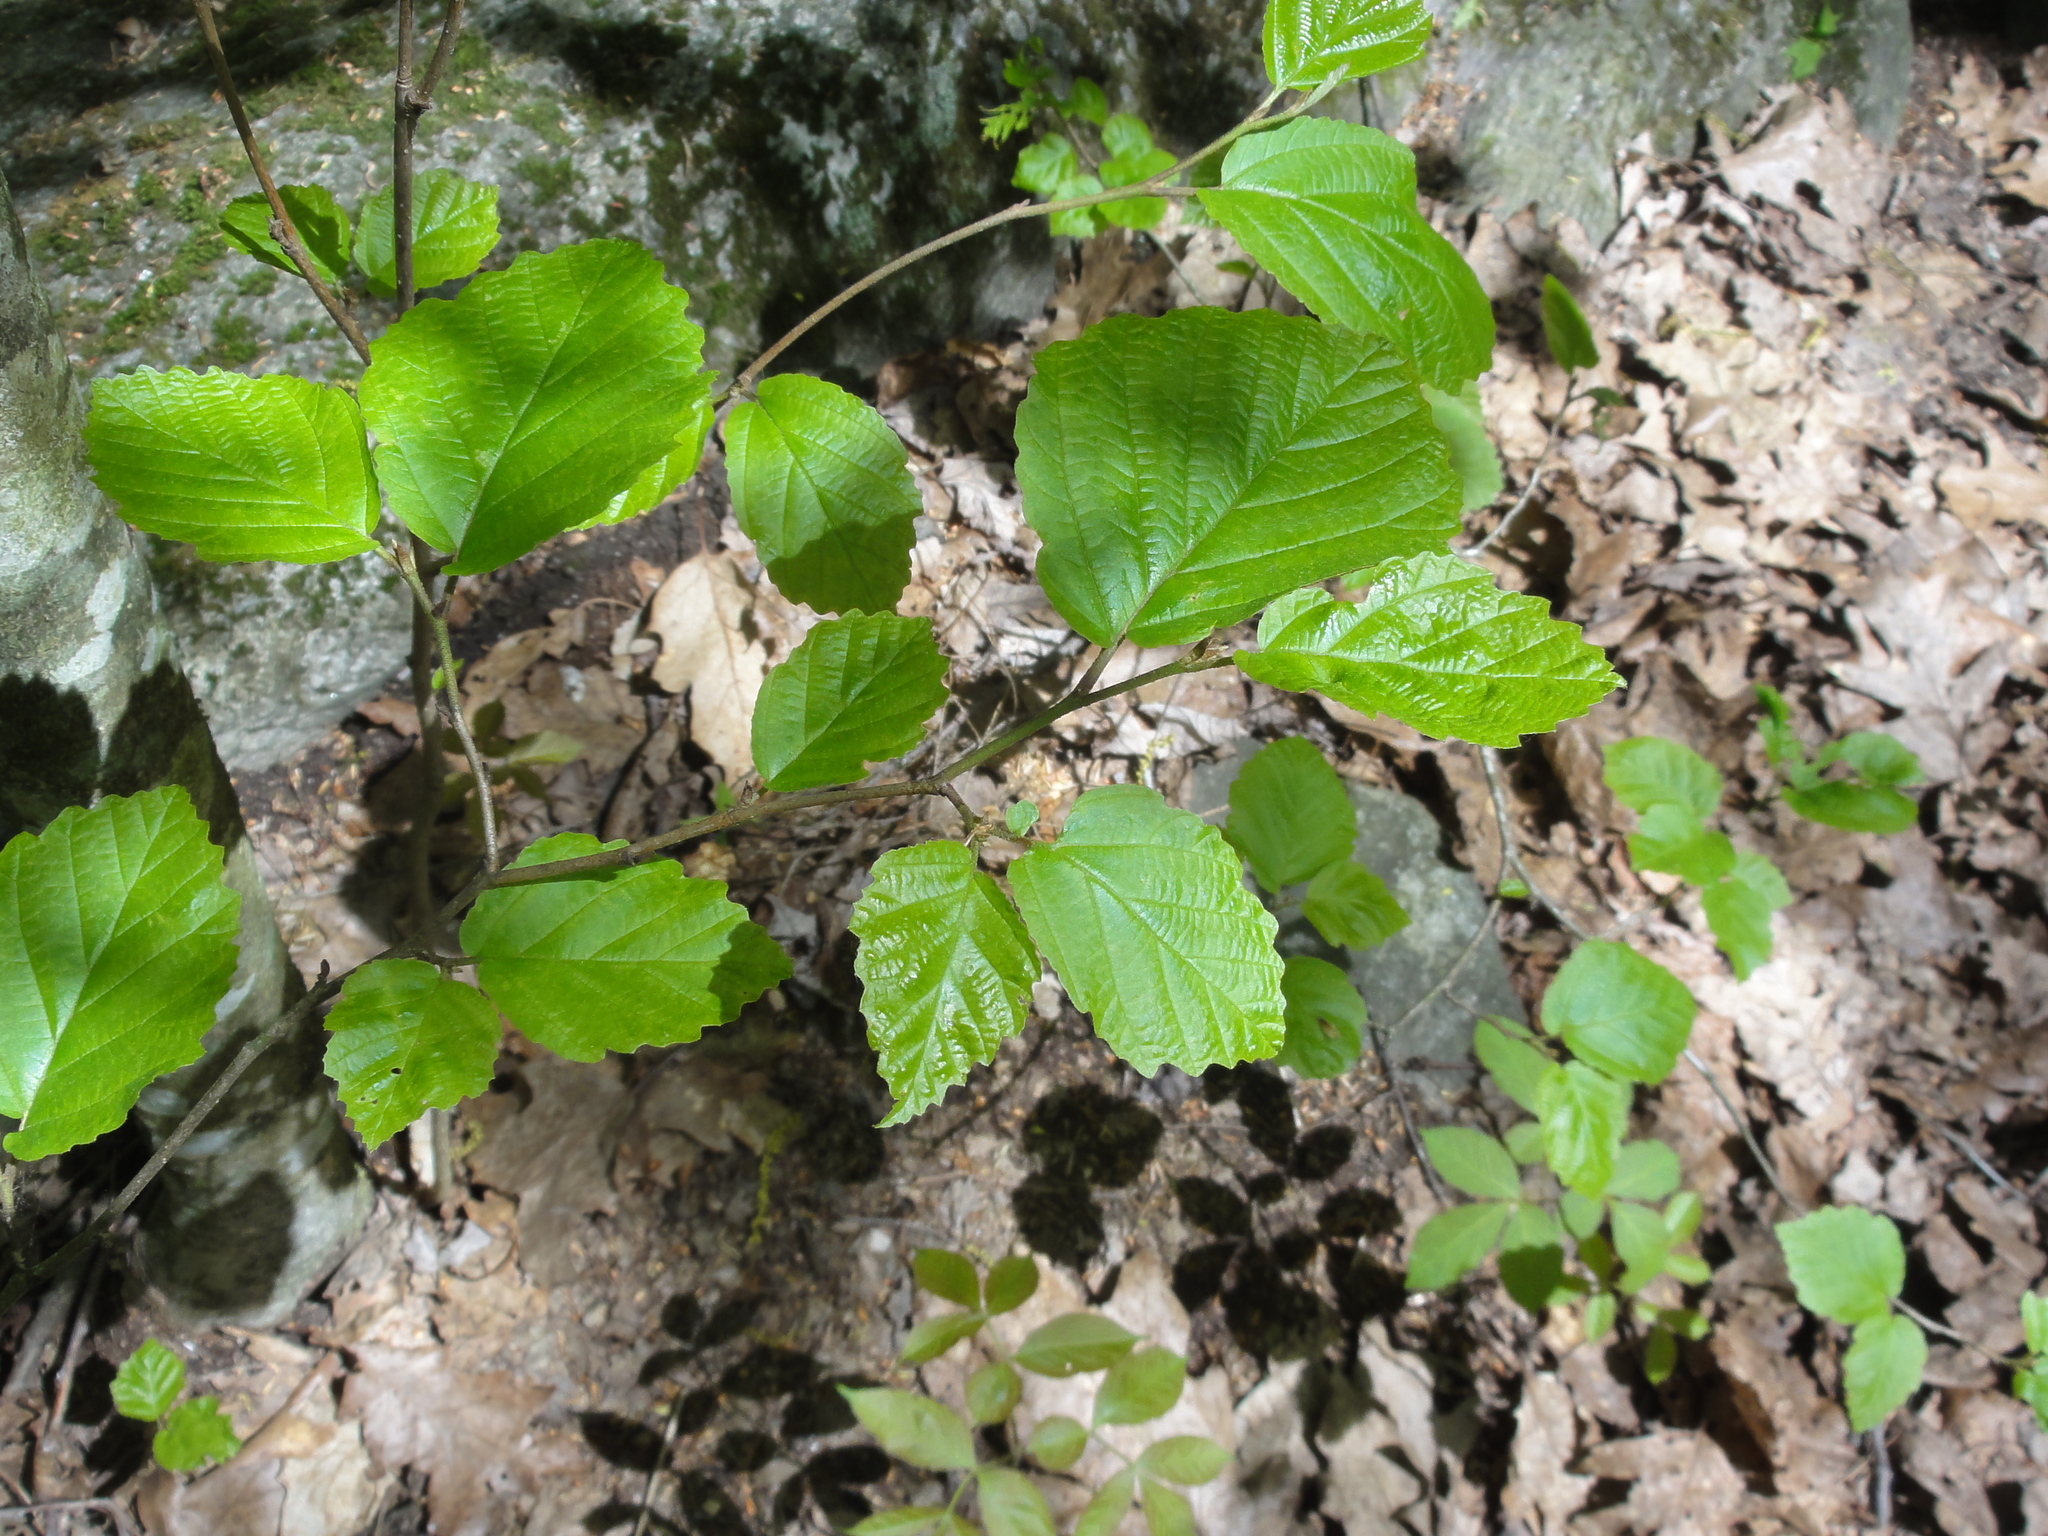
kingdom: Plantae
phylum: Tracheophyta
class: Magnoliopsida
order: Saxifragales
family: Hamamelidaceae
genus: Hamamelis
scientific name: Hamamelis virginiana
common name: Witch-hazel
